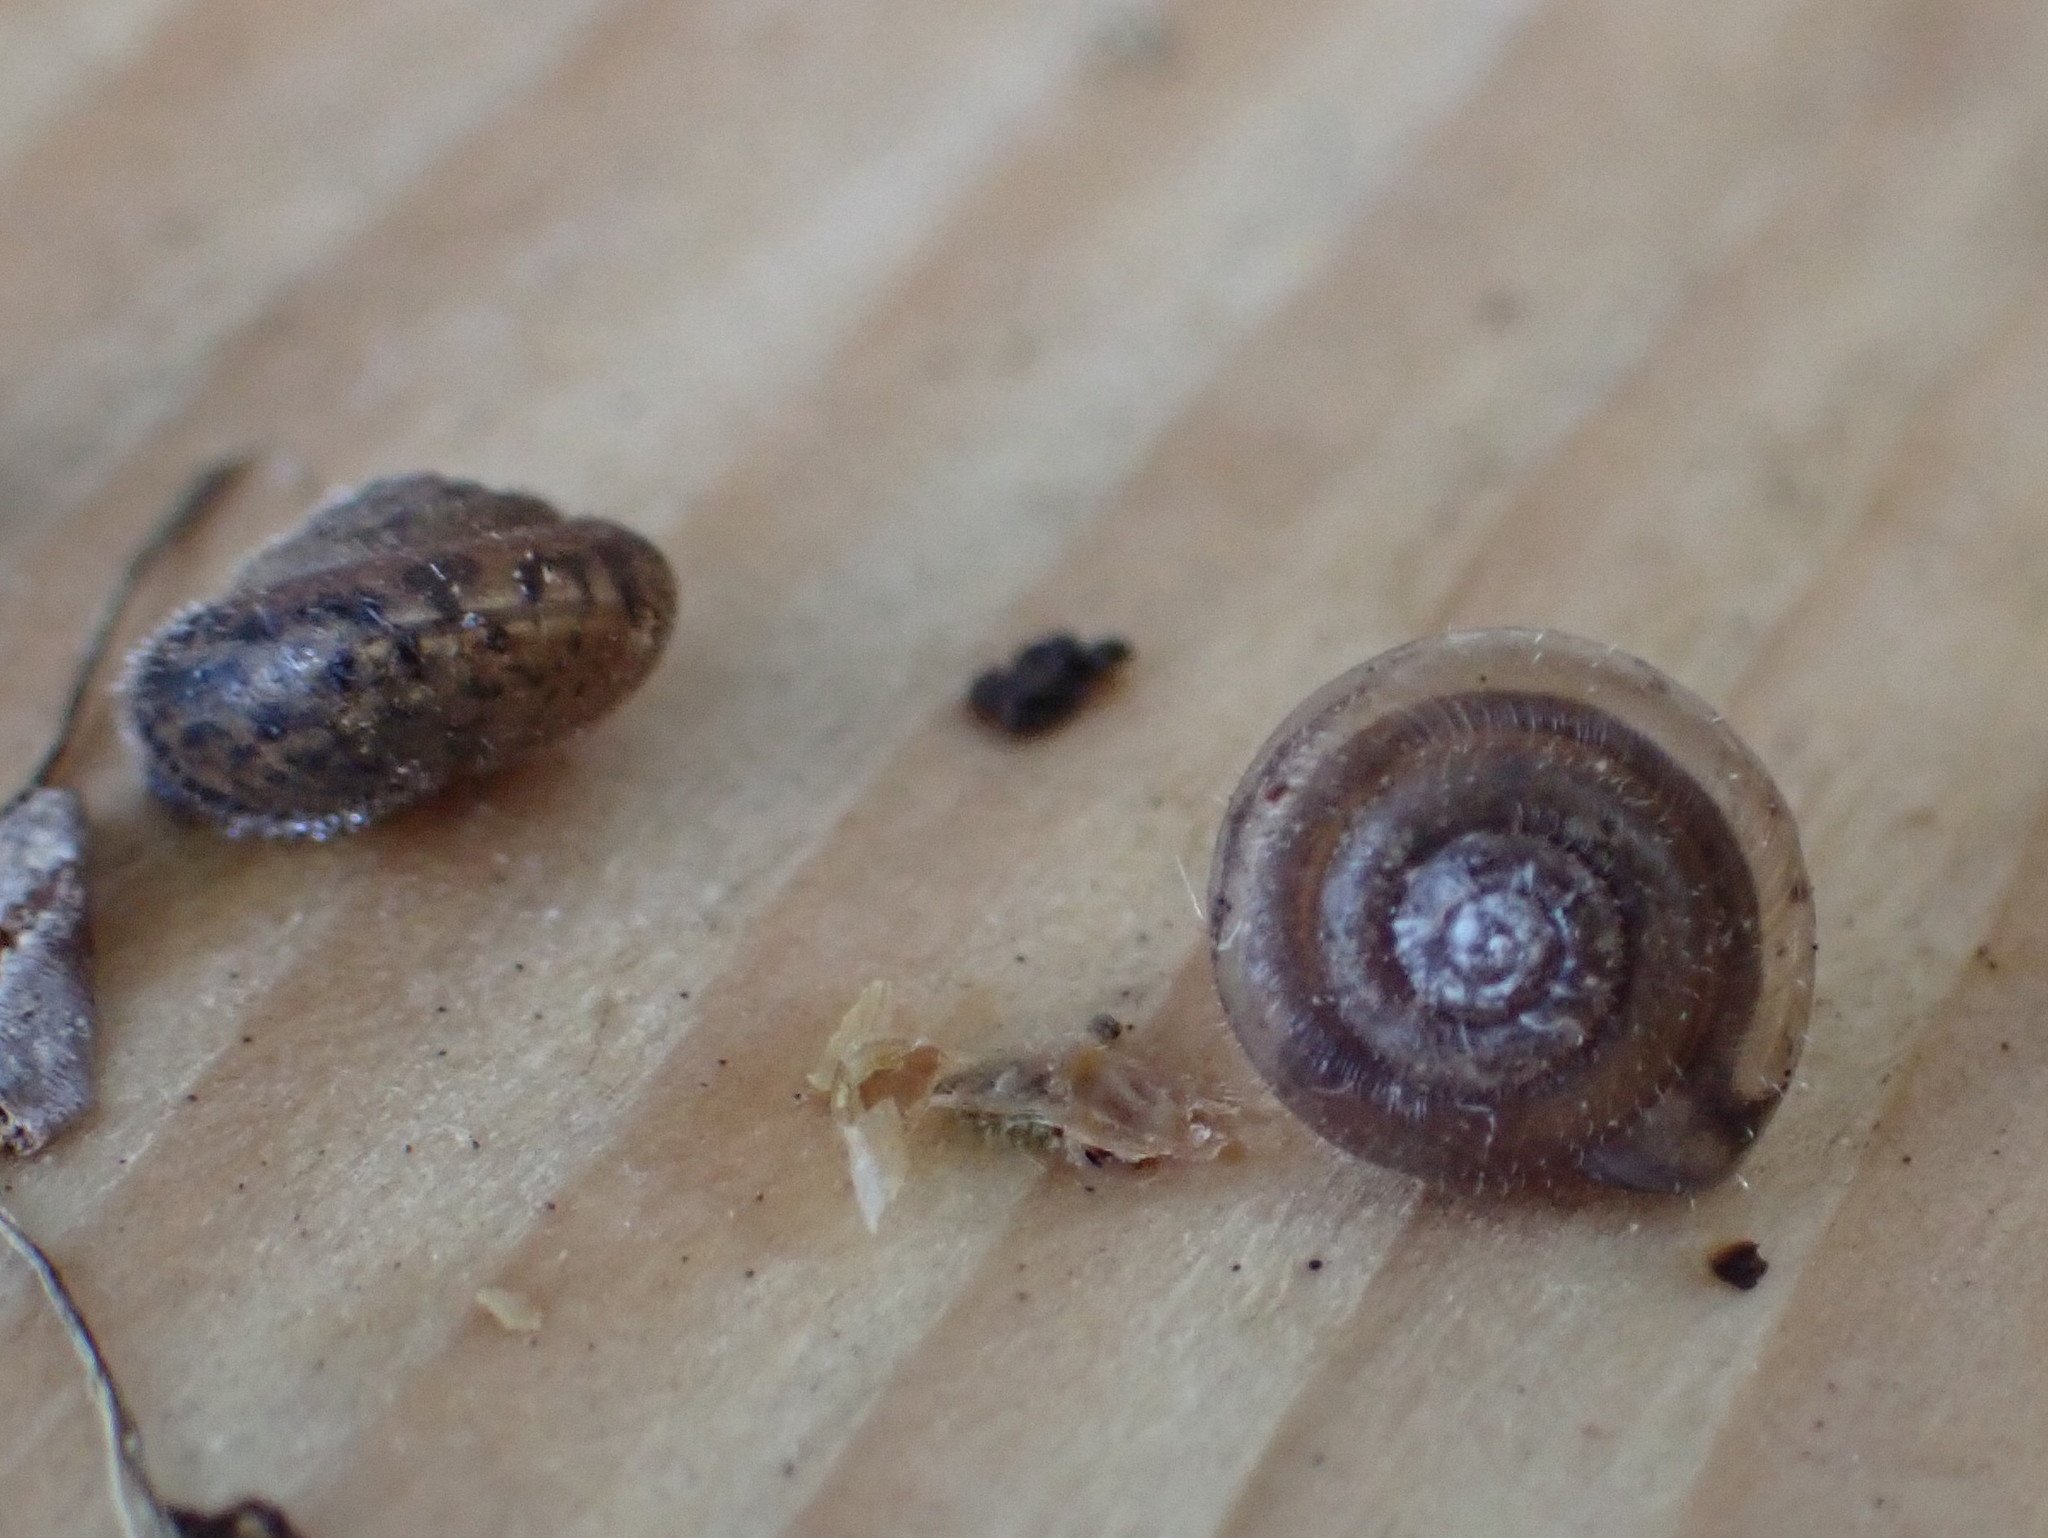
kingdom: Animalia
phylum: Mollusca
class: Gastropoda
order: Stylommatophora
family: Hygromiidae
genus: Trochulus
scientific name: Trochulus hispidus
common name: Hairy snail
